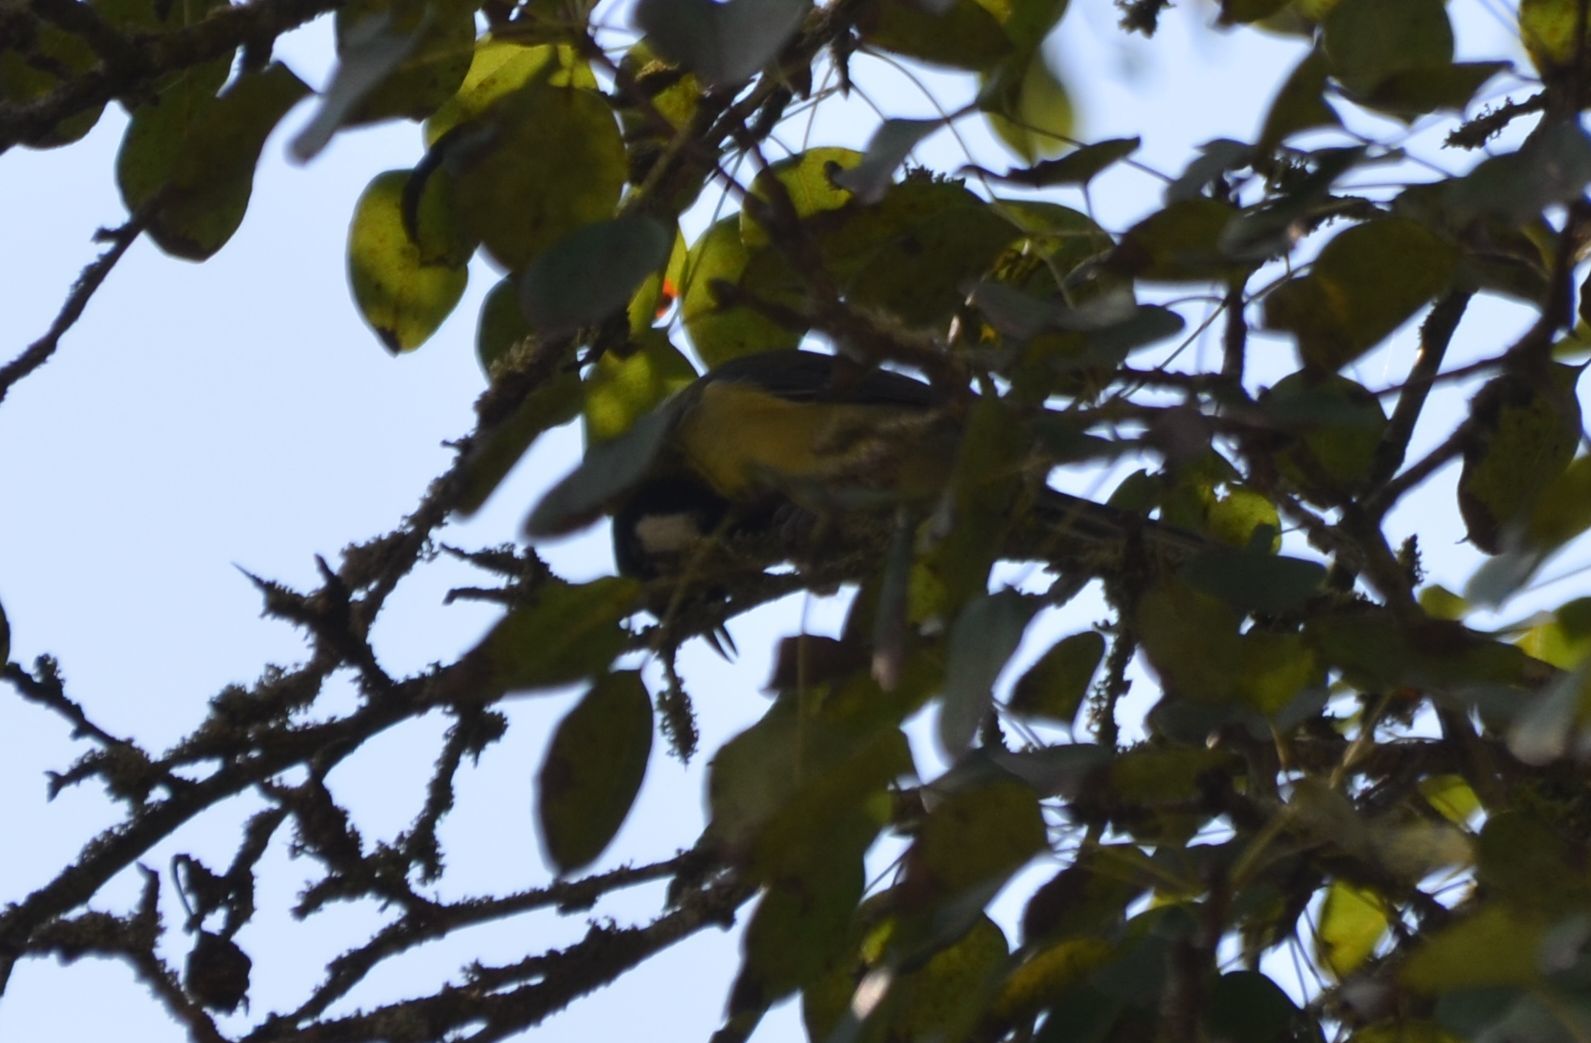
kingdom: Animalia
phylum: Chordata
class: Aves
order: Passeriformes
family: Paridae
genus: Parus
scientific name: Parus major
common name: Great tit
